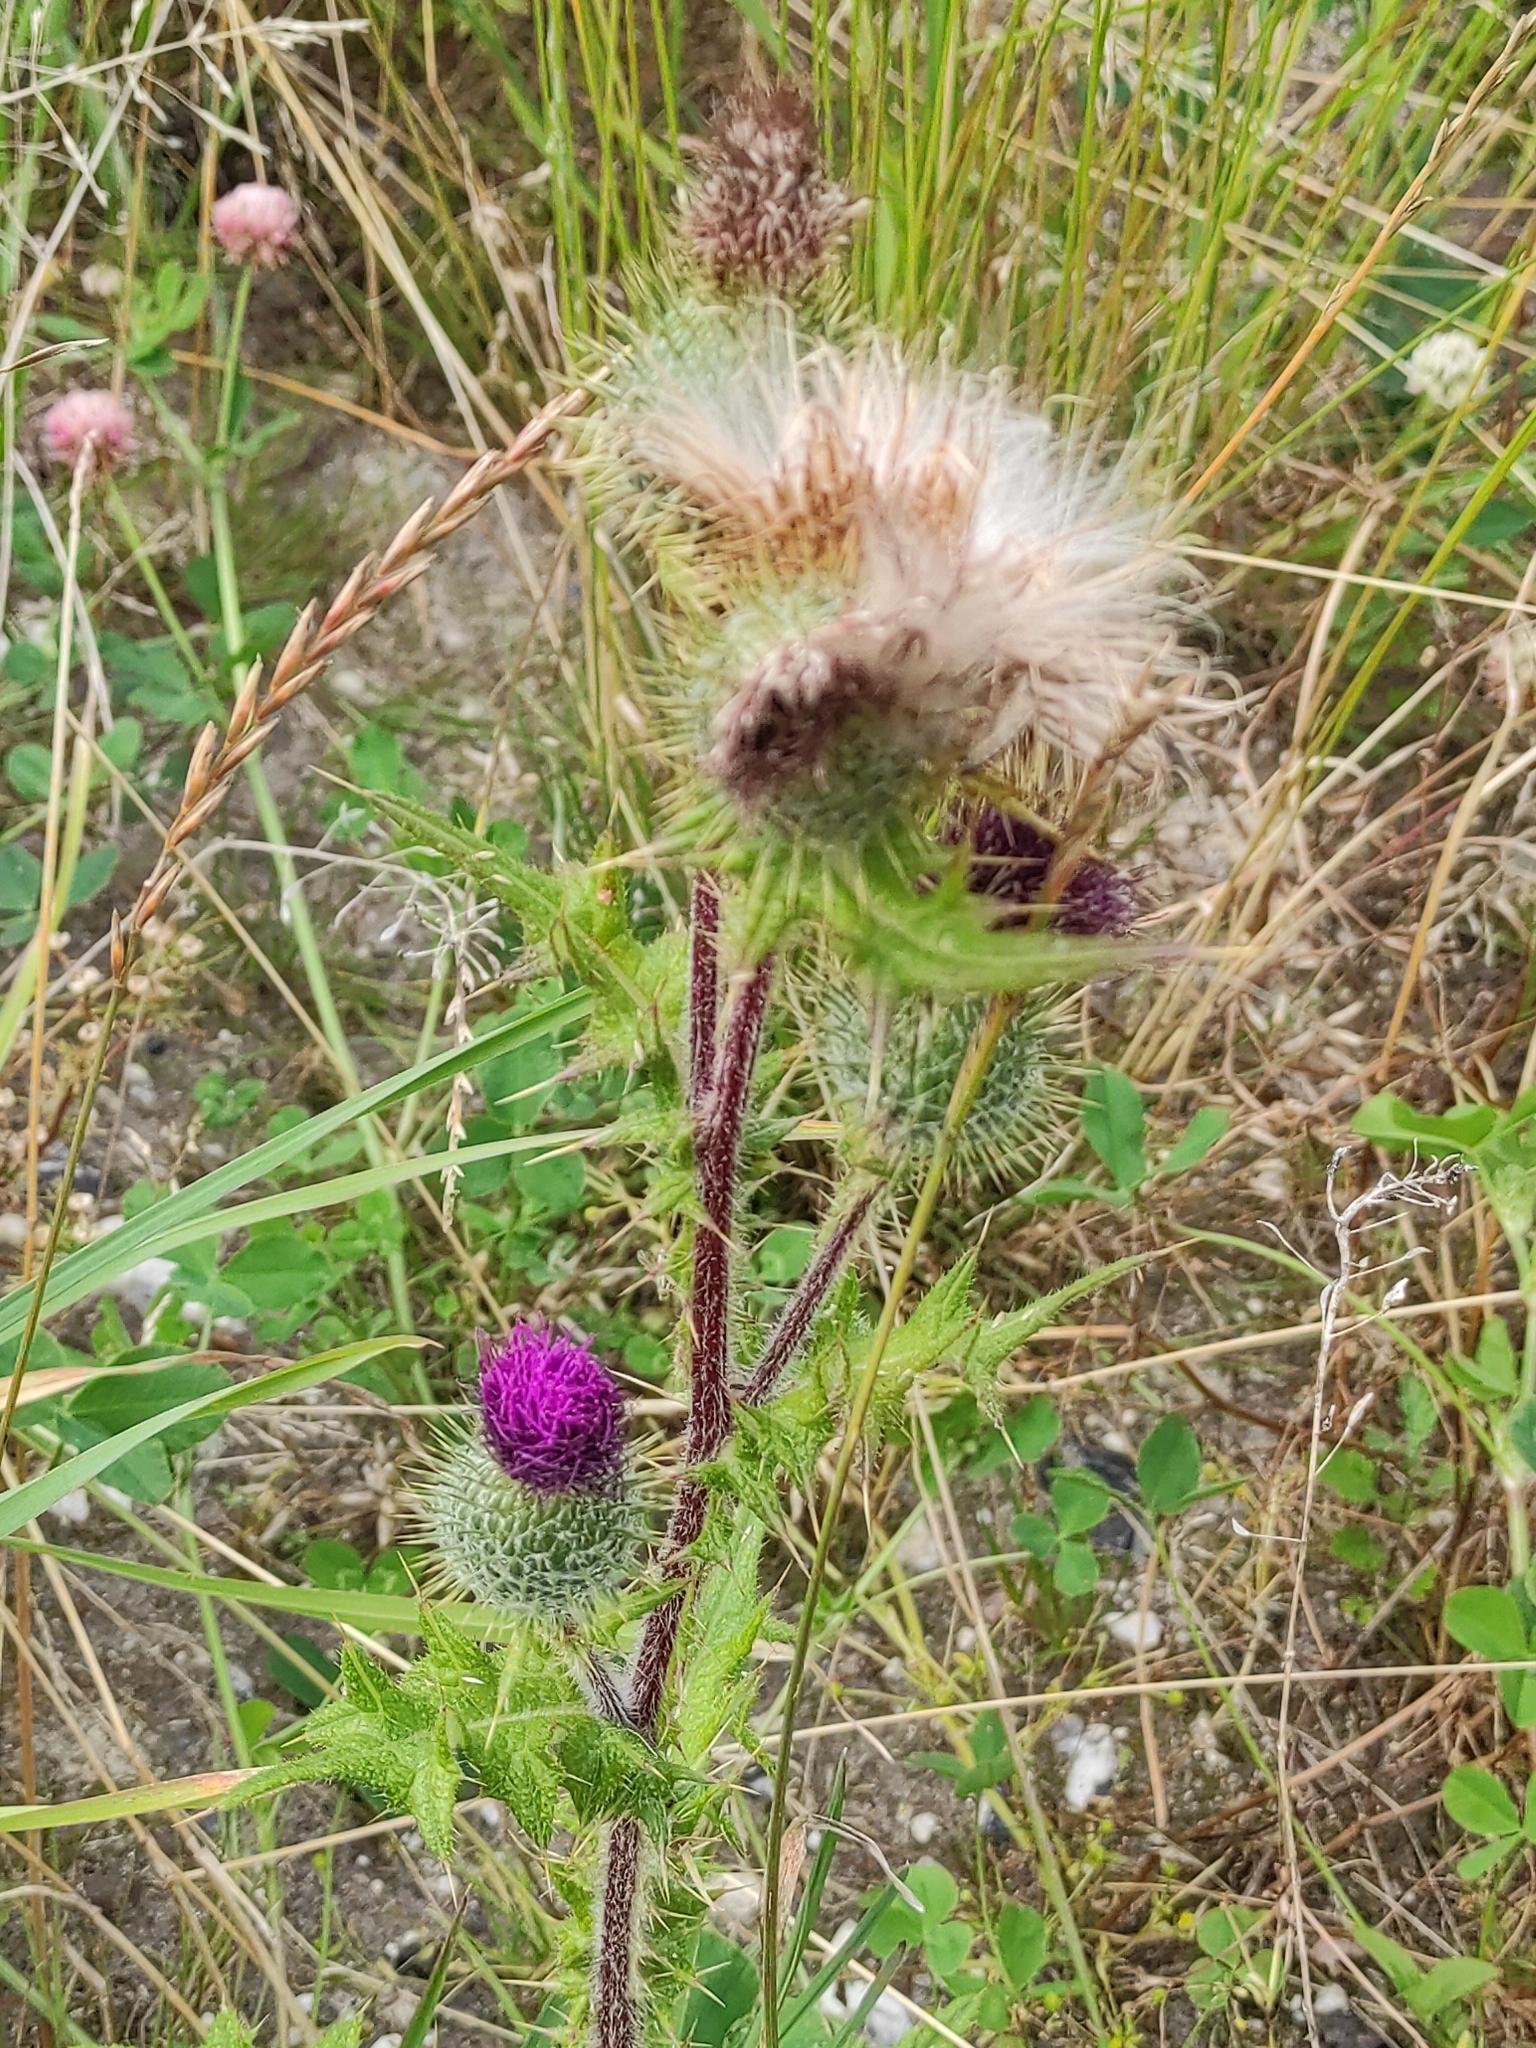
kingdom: Plantae
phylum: Tracheophyta
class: Magnoliopsida
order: Asterales
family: Asteraceae
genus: Cirsium
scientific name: Cirsium vulgare
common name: Bull thistle
